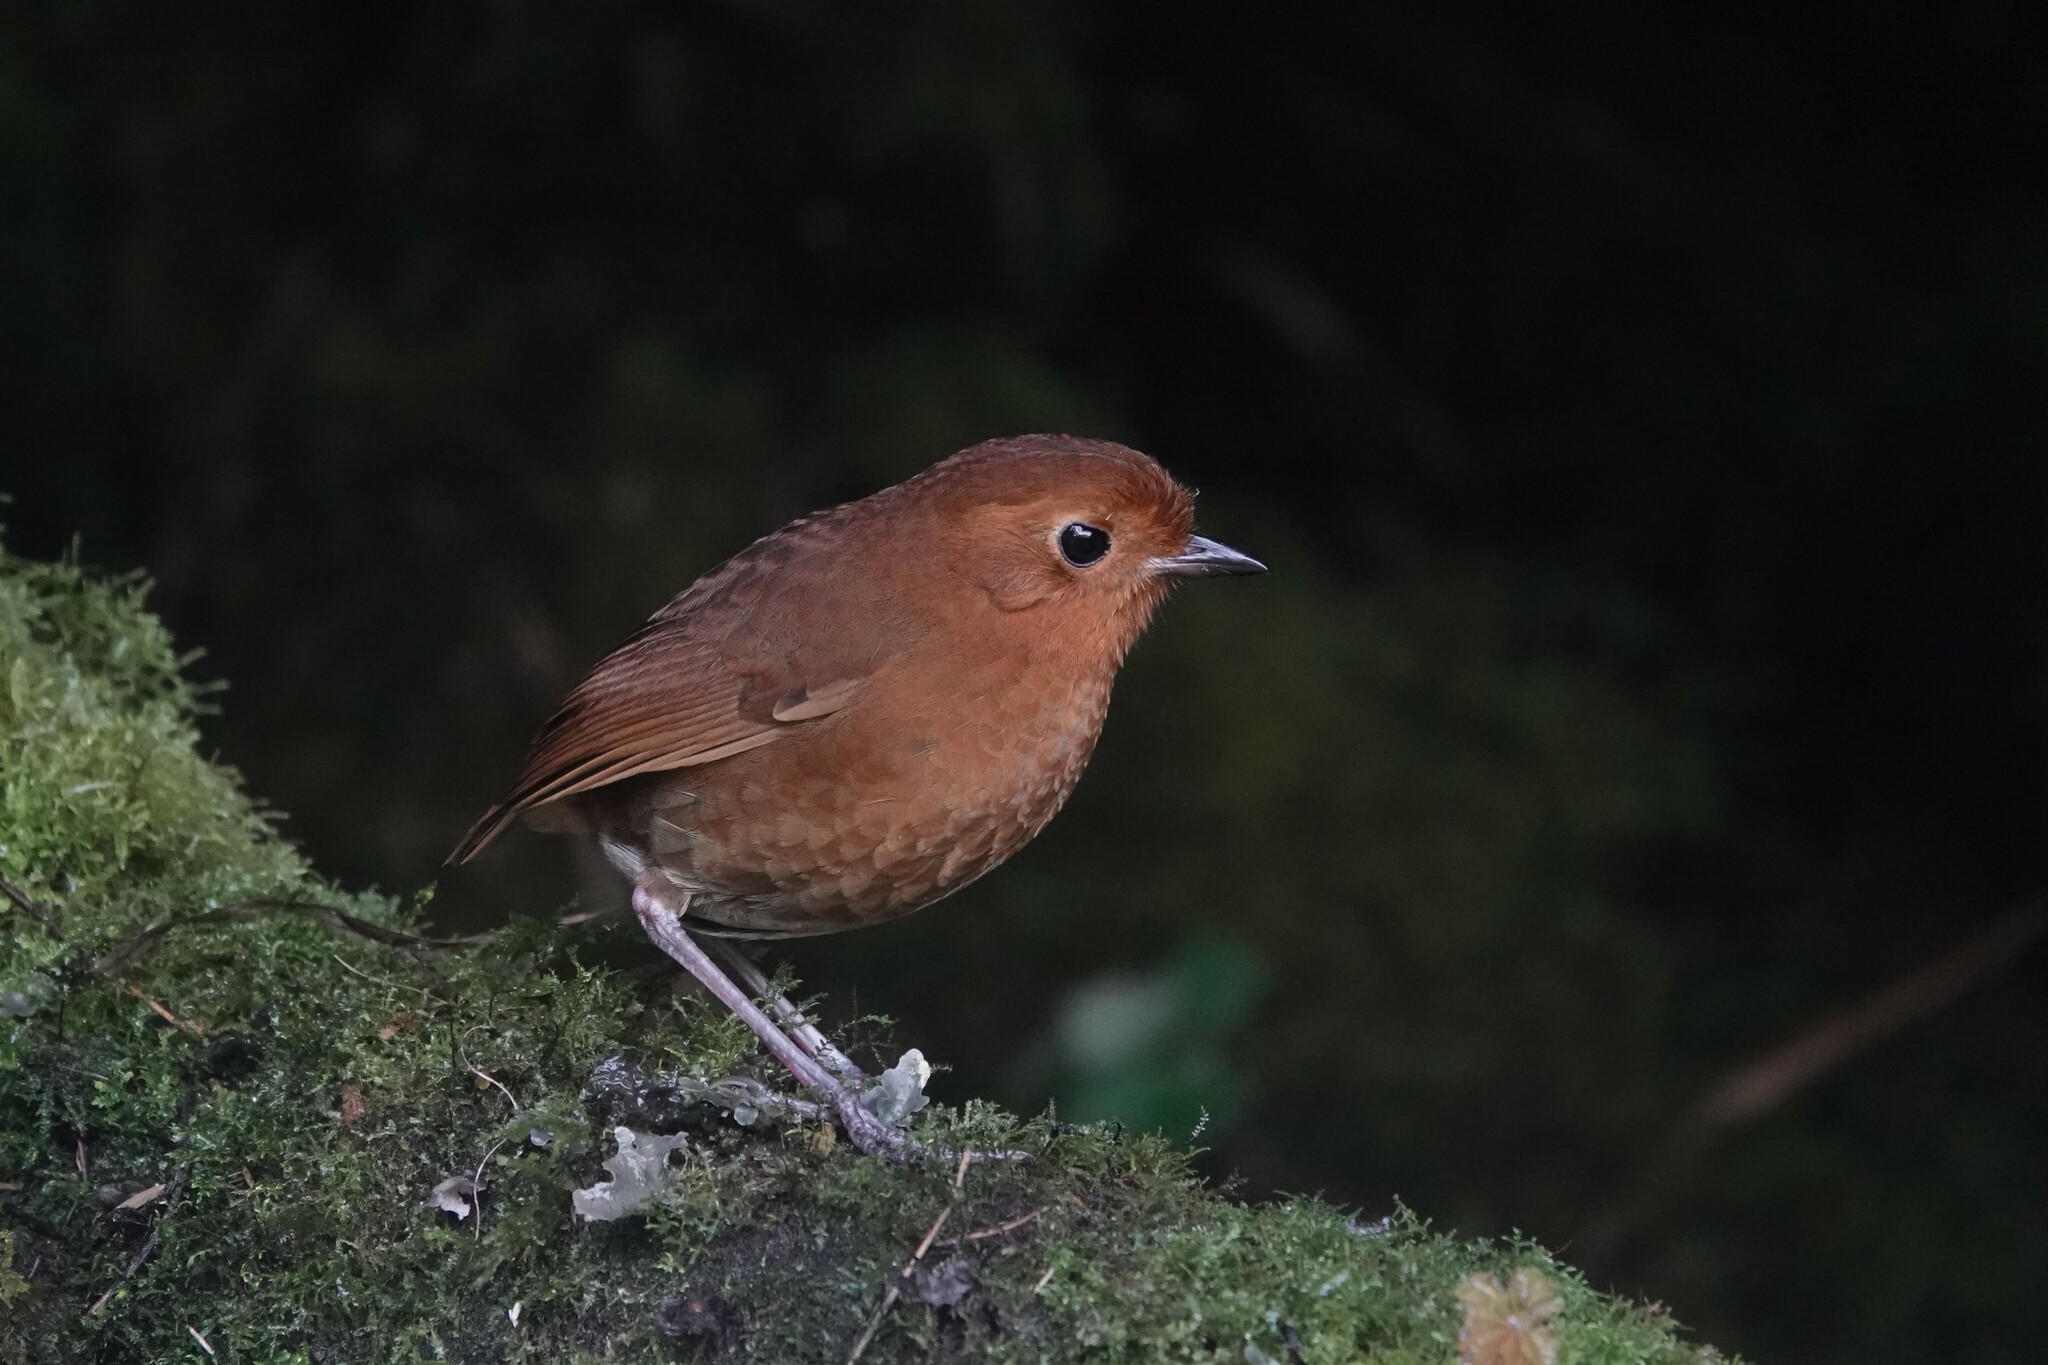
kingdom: Animalia
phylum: Chordata
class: Aves
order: Passeriformes
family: Grallariidae
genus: Grallaria
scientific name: Grallaria saturata
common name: Equatorial antpitta
